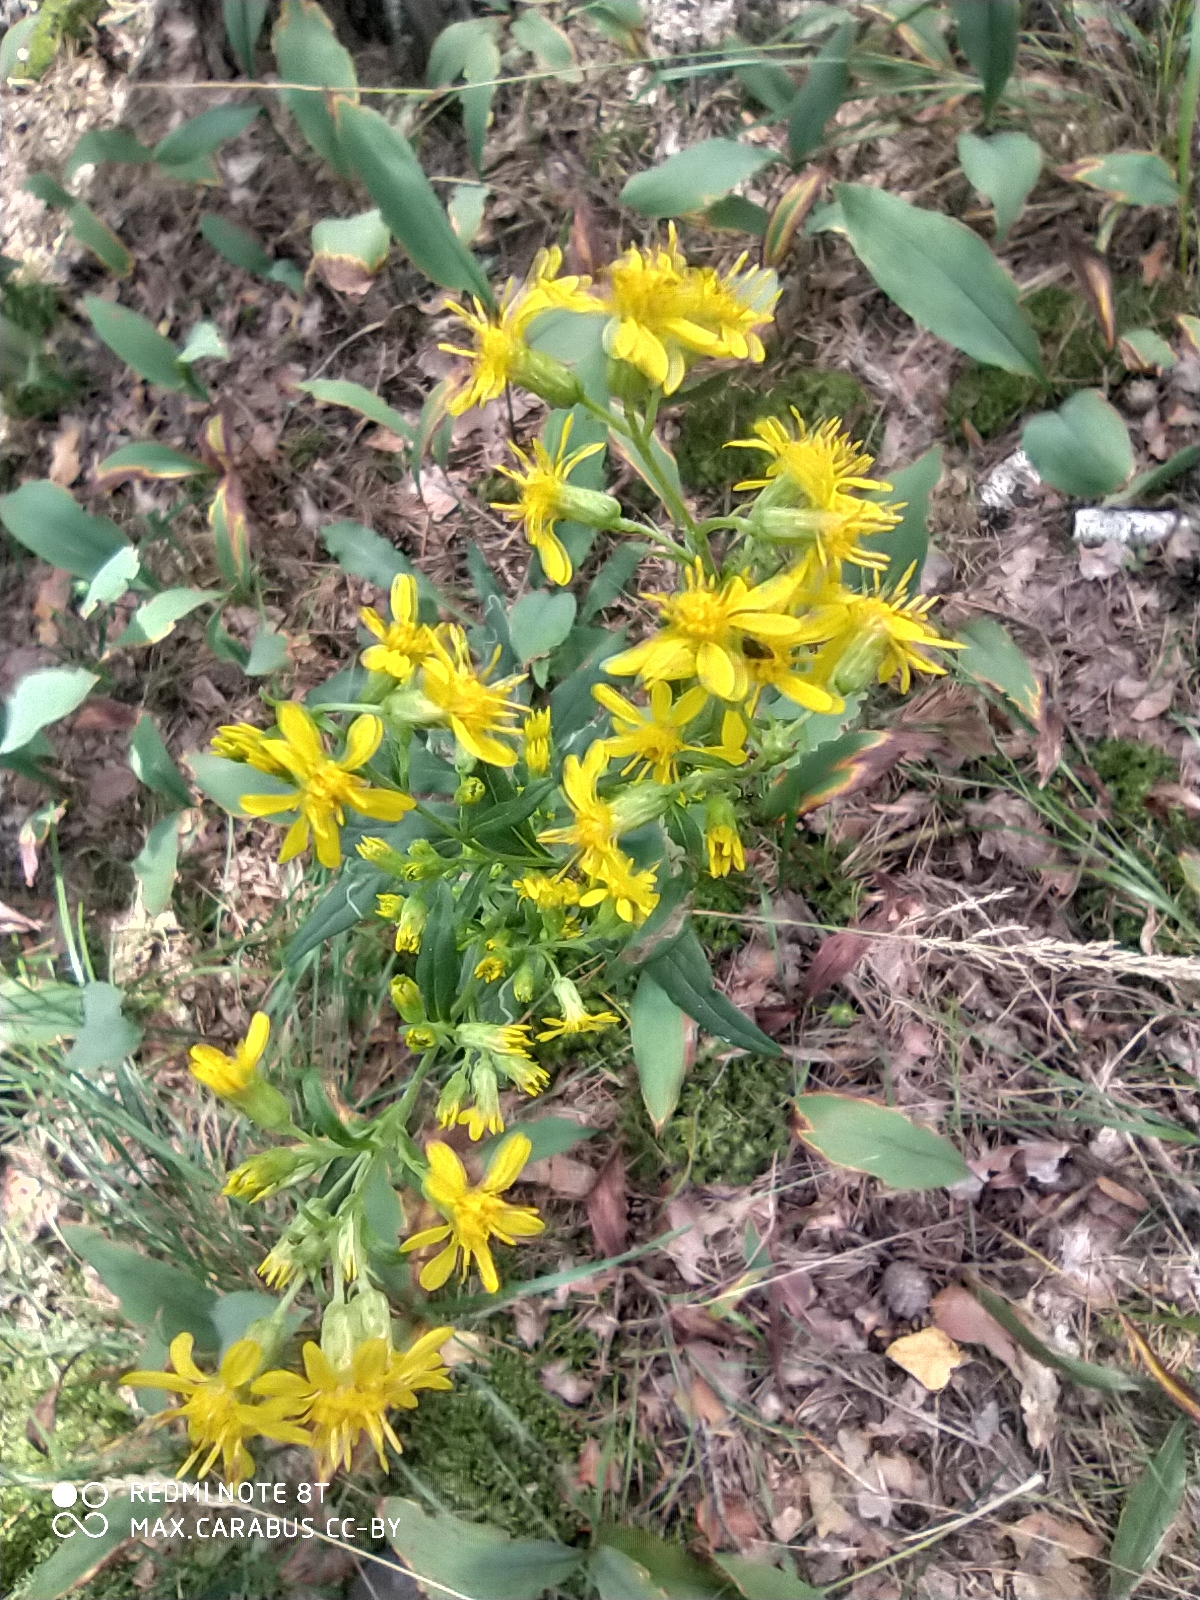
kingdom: Plantae
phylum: Tracheophyta
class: Magnoliopsida
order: Asterales
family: Asteraceae
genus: Solidago
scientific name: Solidago virgaurea
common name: Goldenrod
